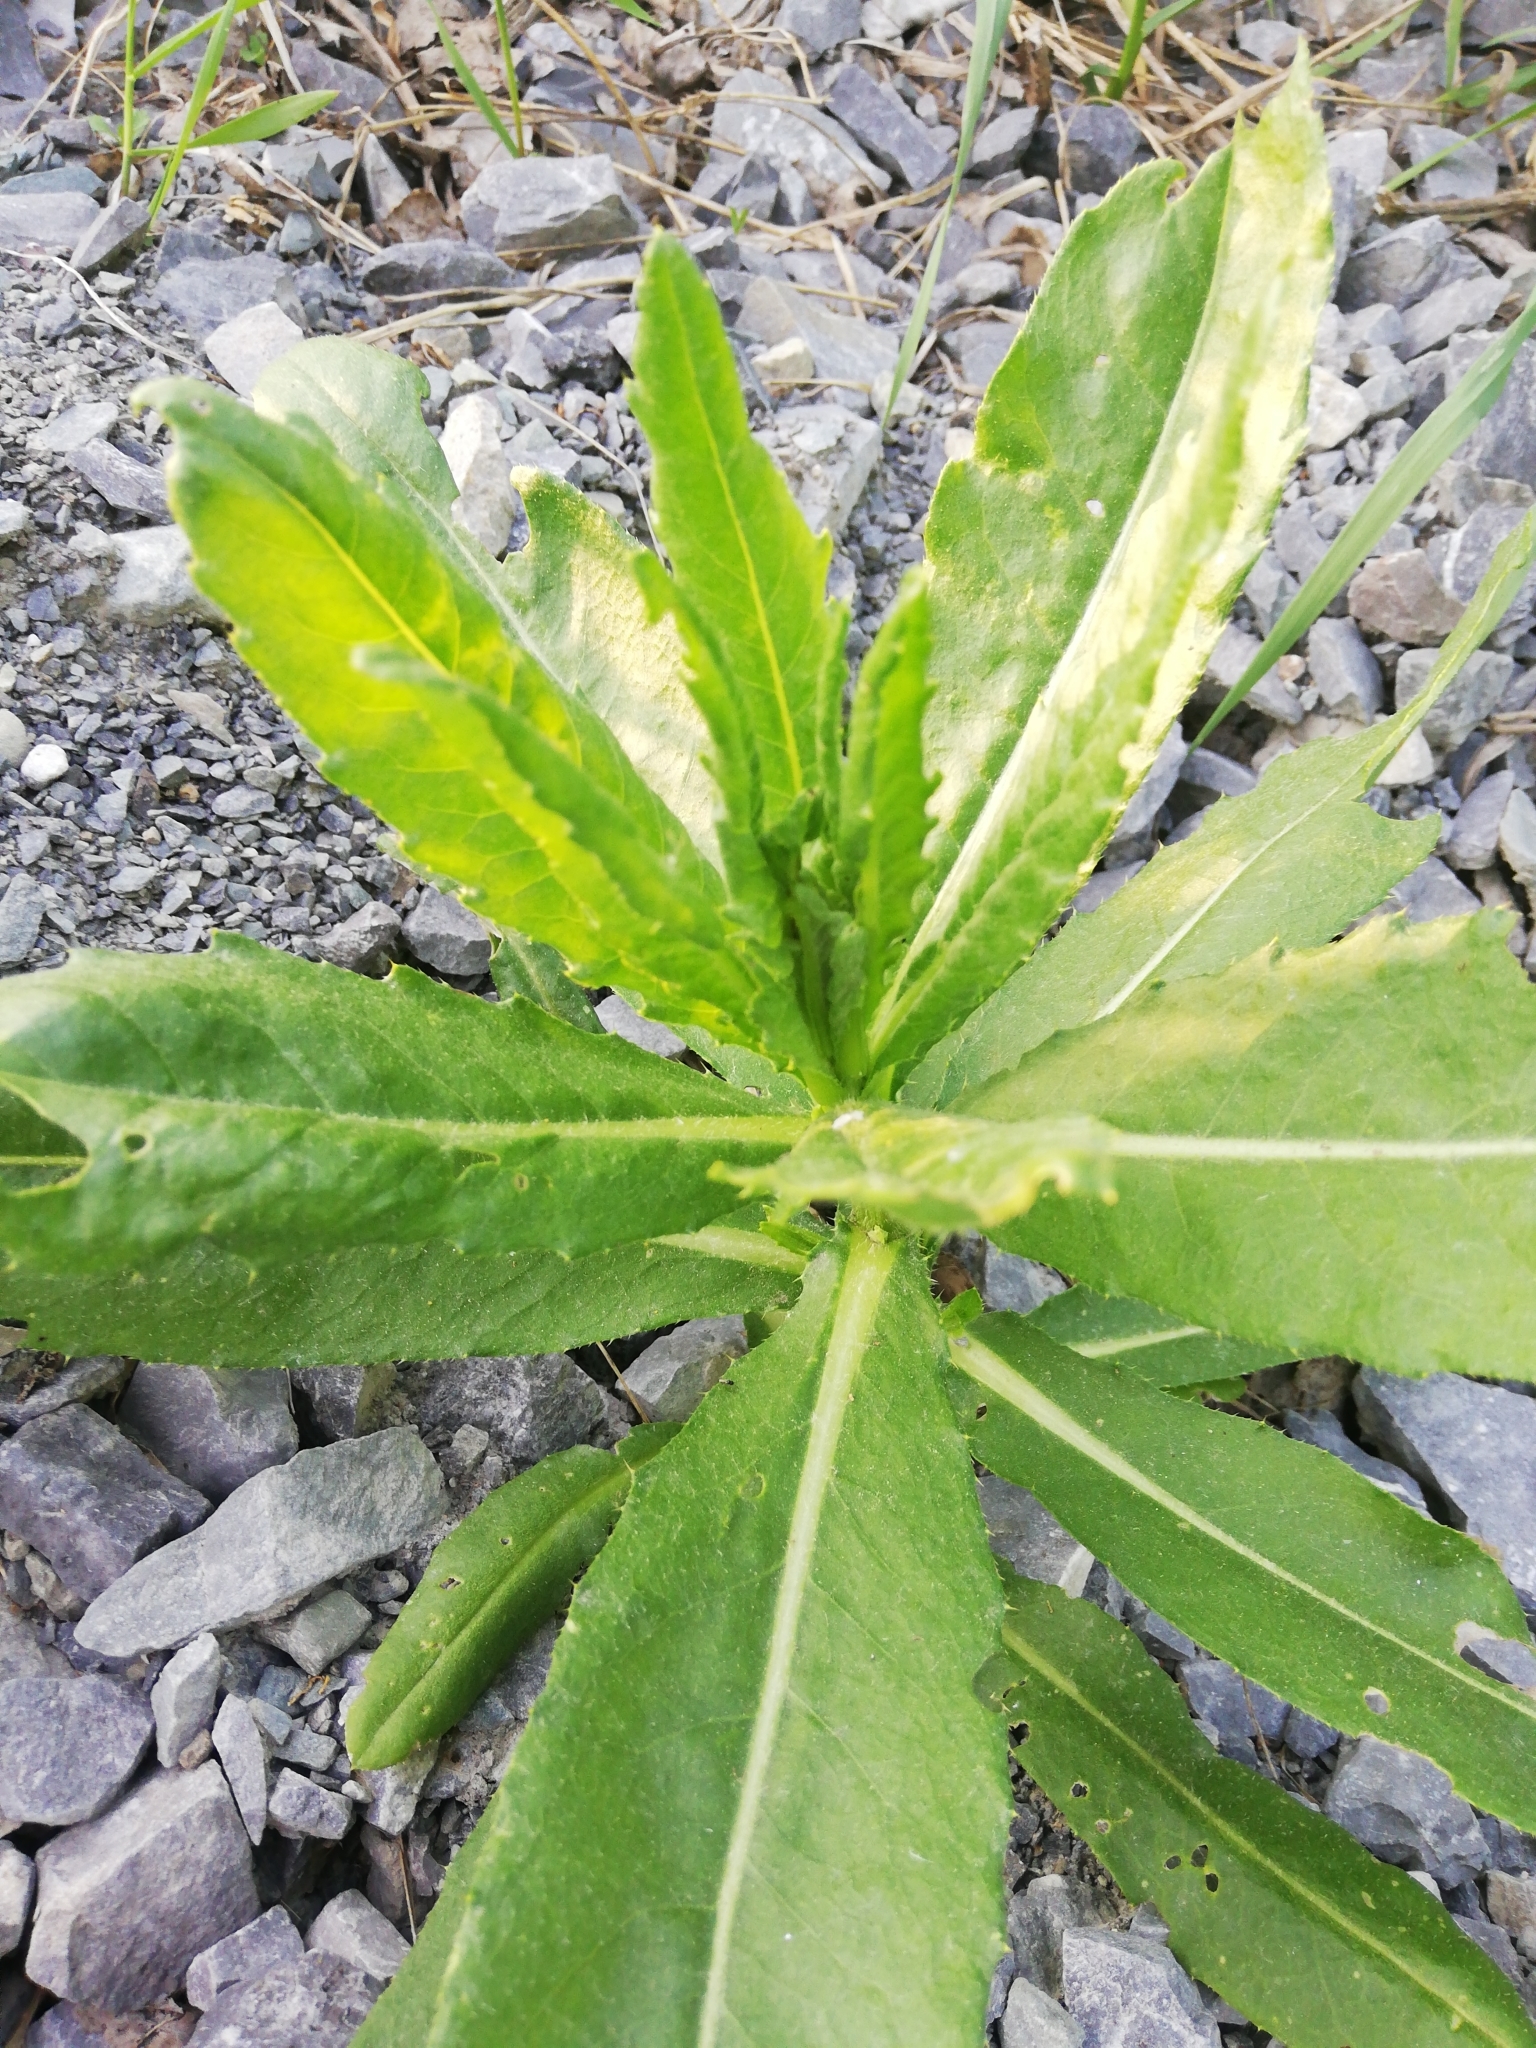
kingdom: Plantae
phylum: Tracheophyta
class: Magnoliopsida
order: Asterales
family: Asteraceae
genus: Cirsium
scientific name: Cirsium arvense
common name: Creeping thistle
